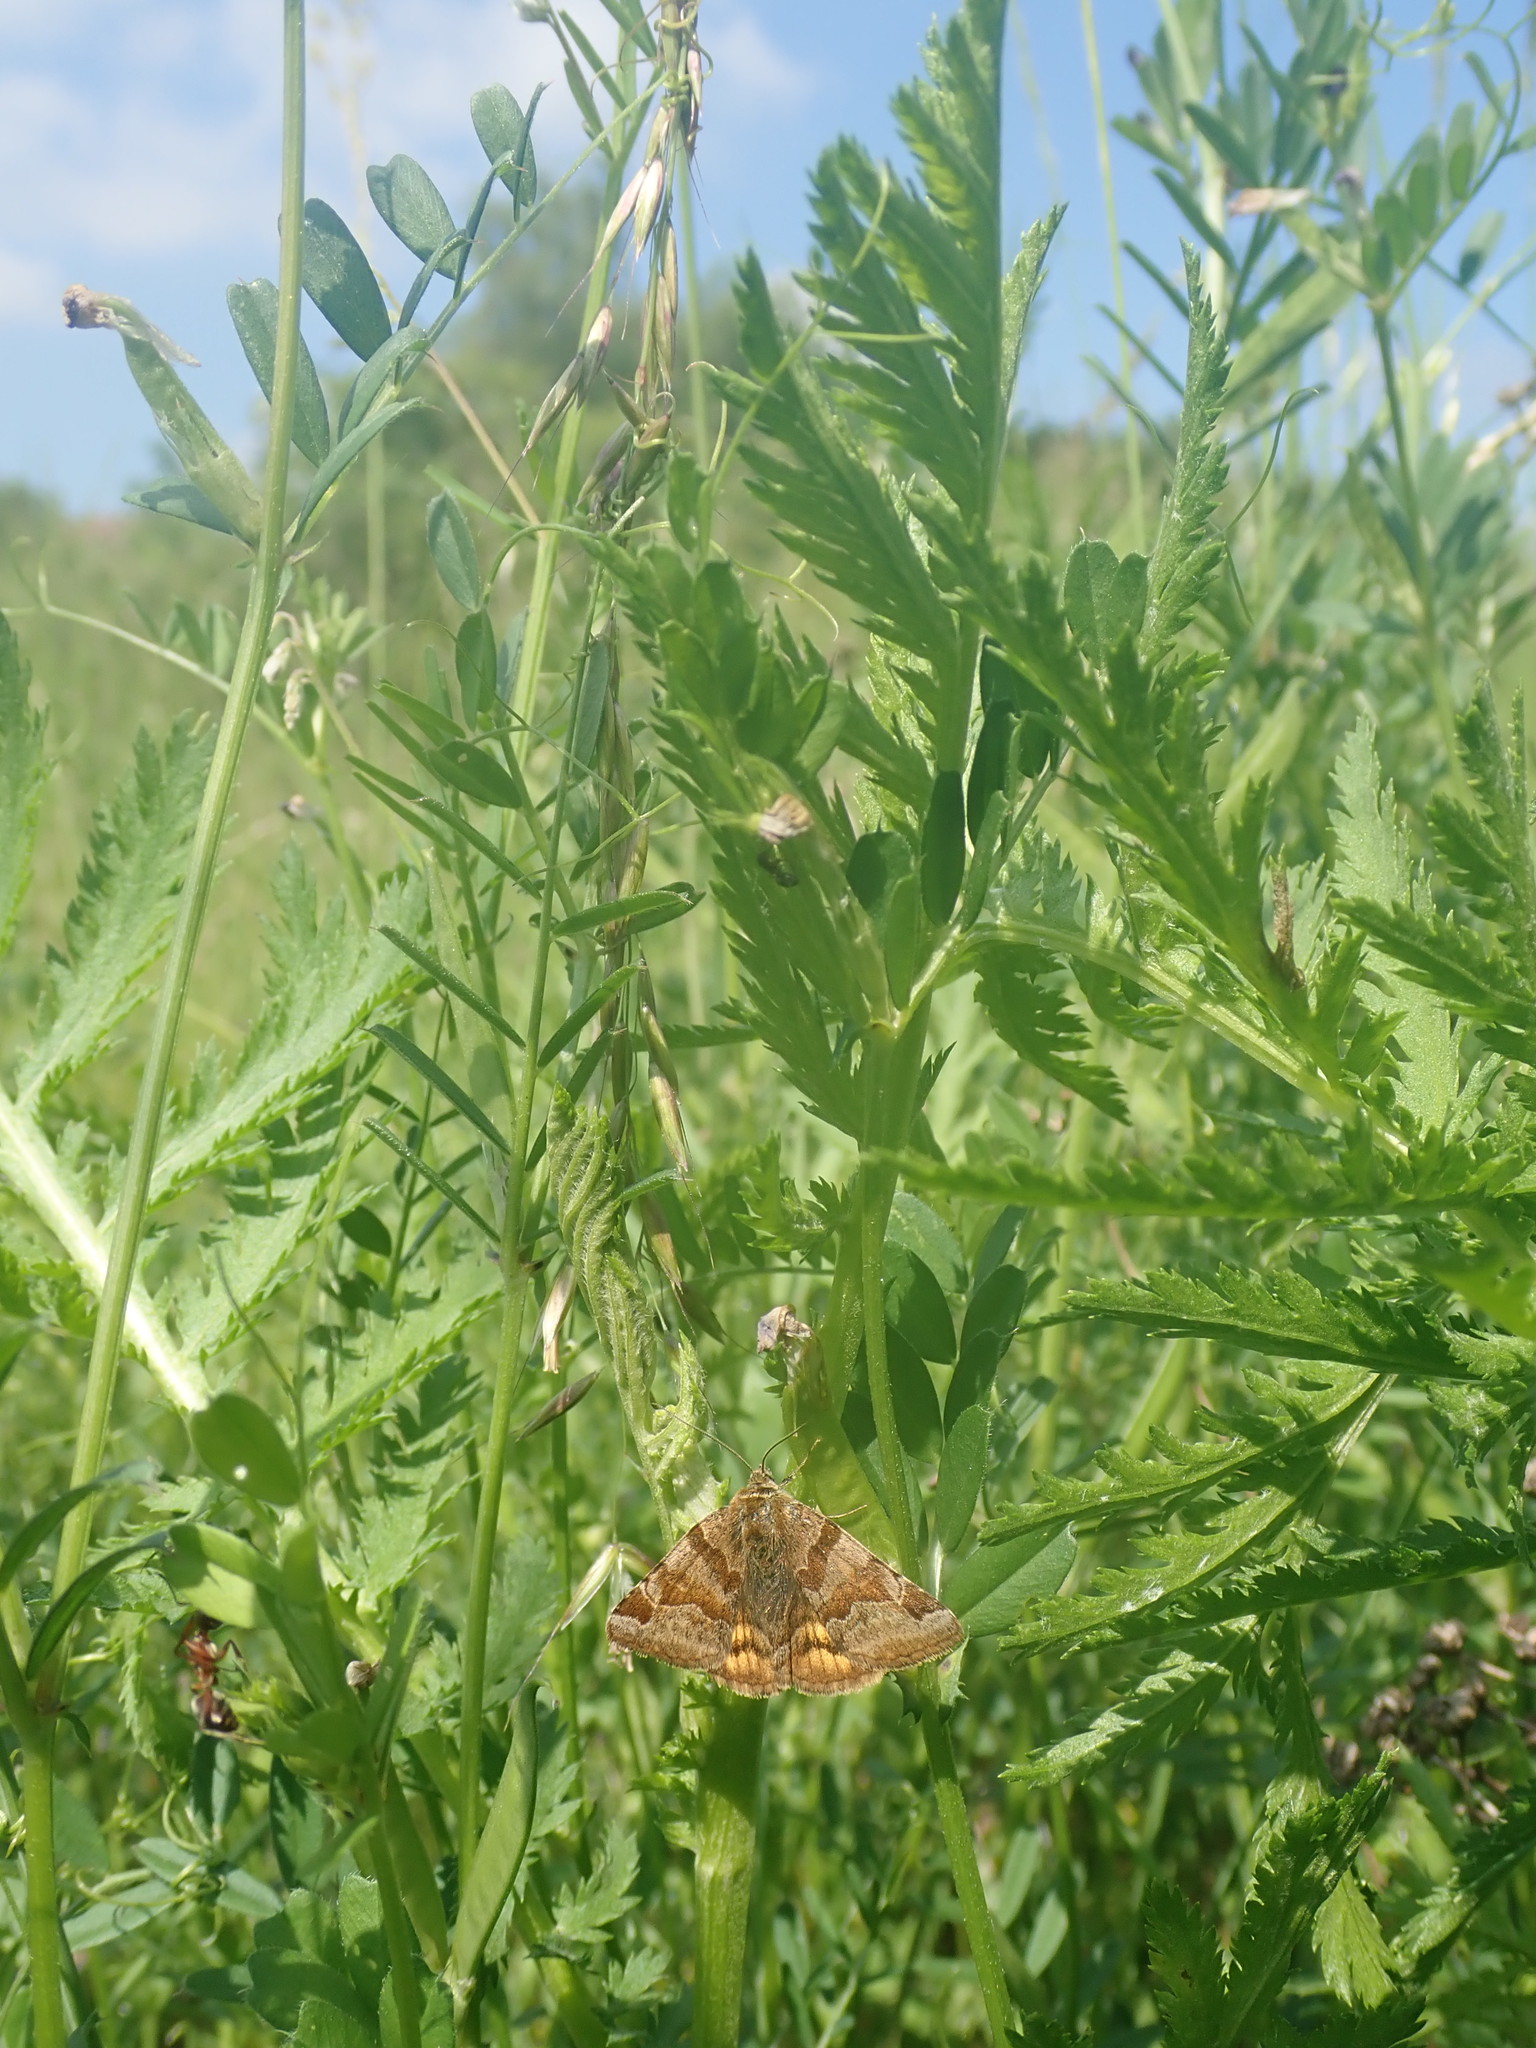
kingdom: Animalia
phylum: Arthropoda
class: Insecta
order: Lepidoptera
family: Erebidae
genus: Euclidia
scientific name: Euclidia glyphica
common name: Burnet companion
